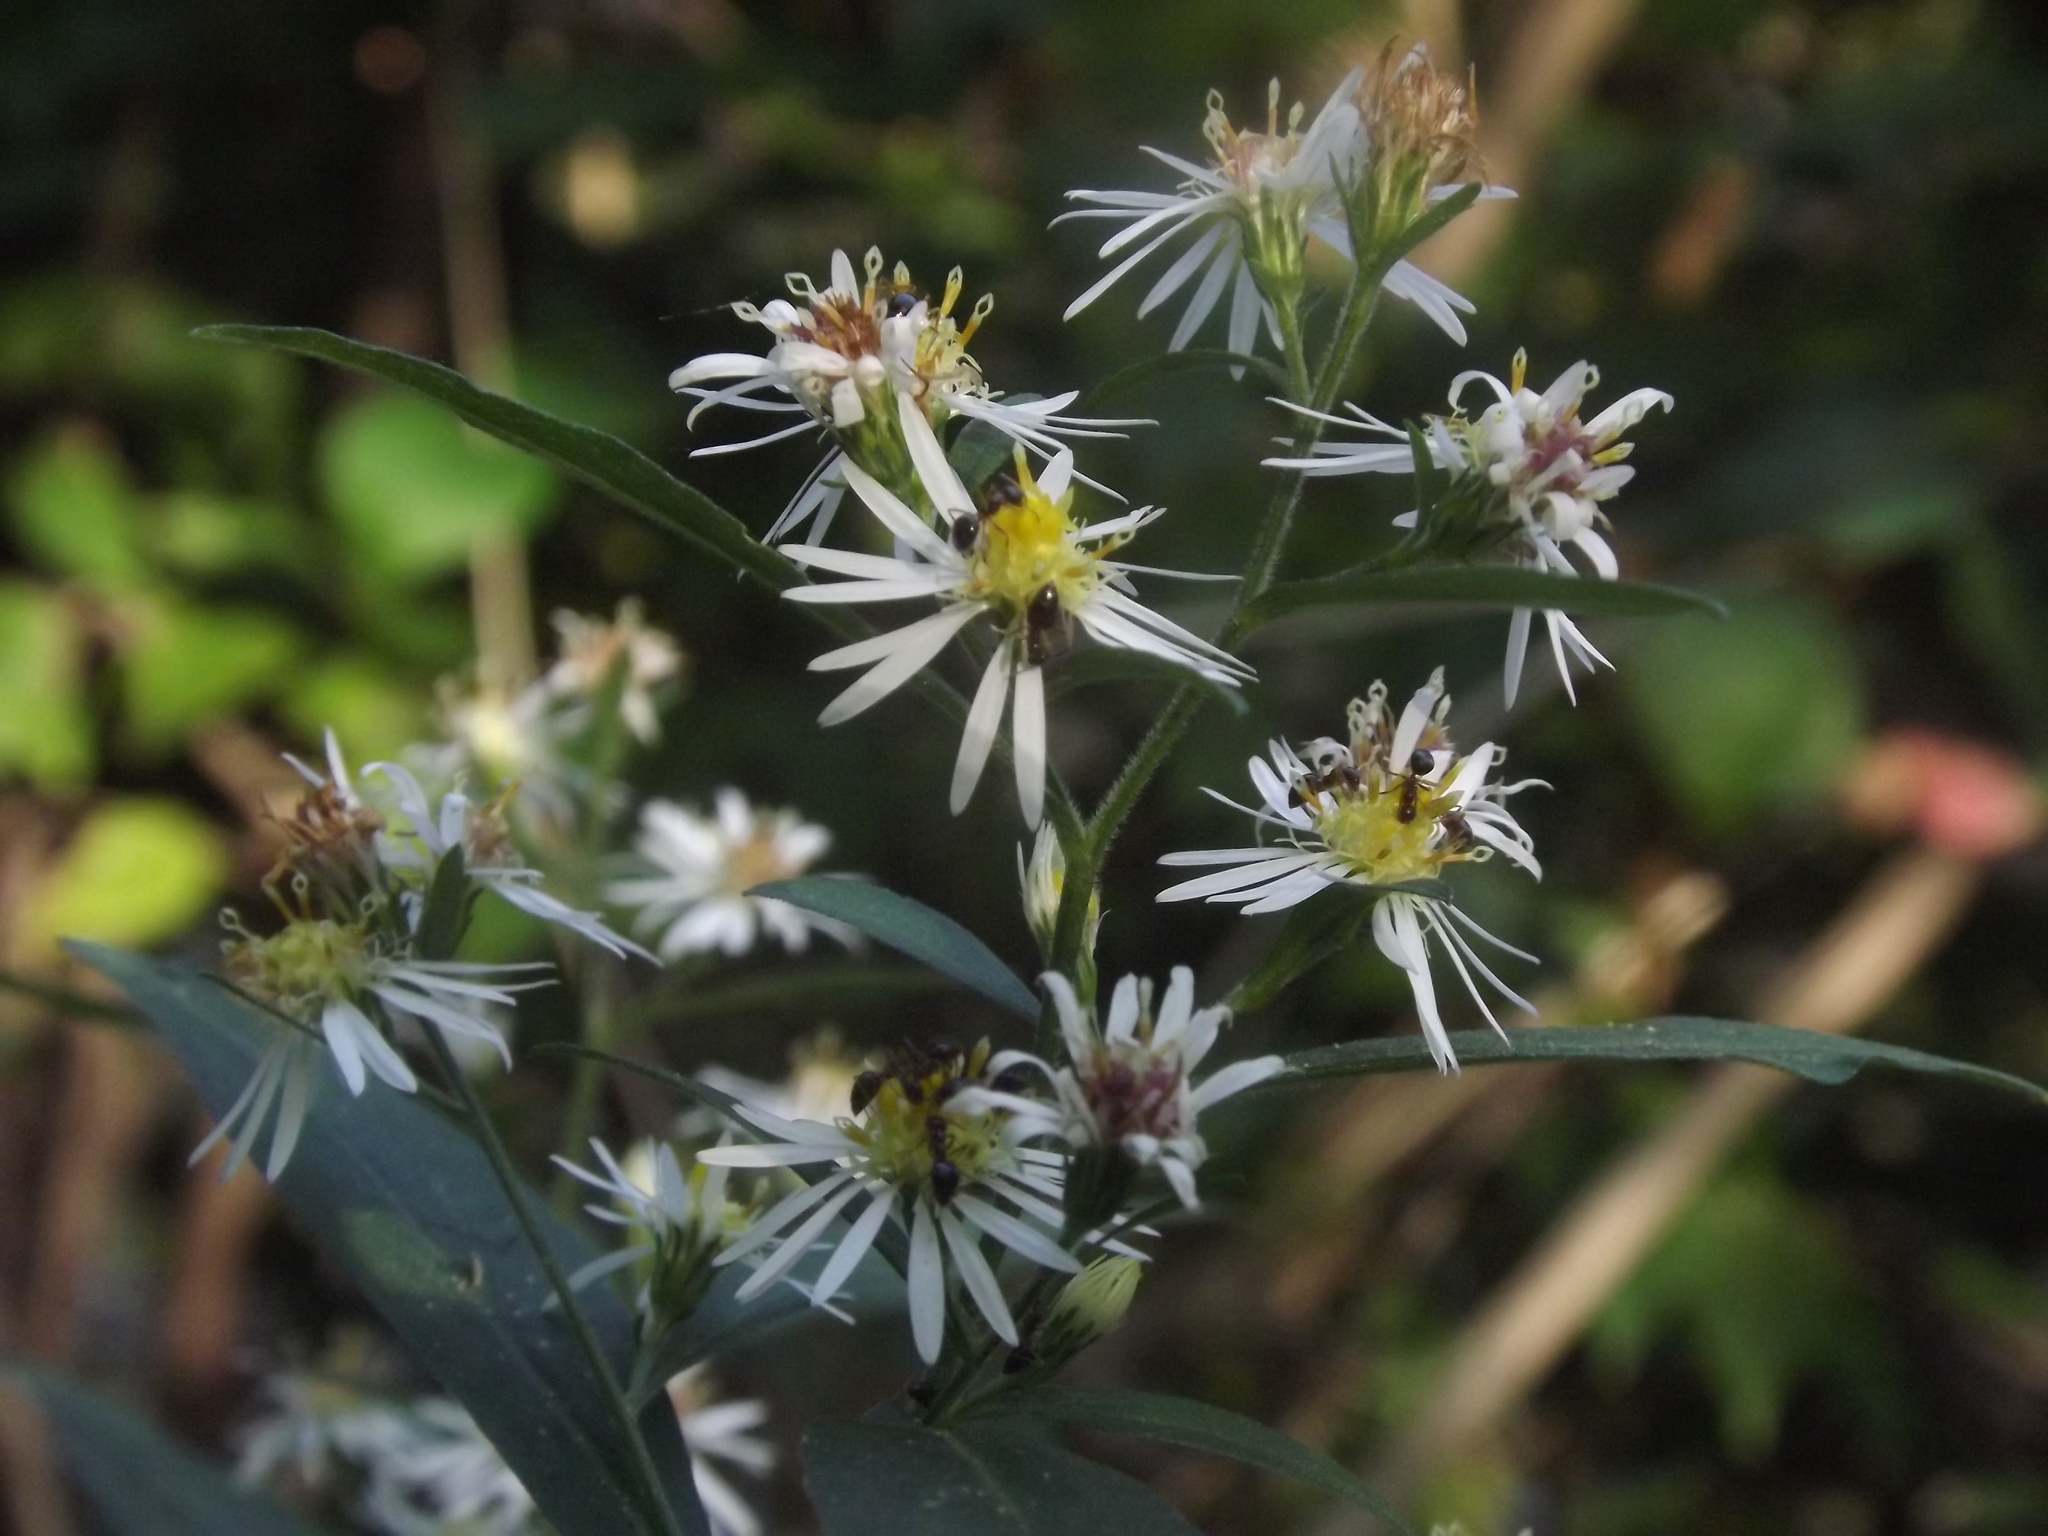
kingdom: Animalia
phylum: Arthropoda
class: Insecta
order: Hymenoptera
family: Formicidae
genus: Prenolepis
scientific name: Prenolepis imparis
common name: Small honey ant
